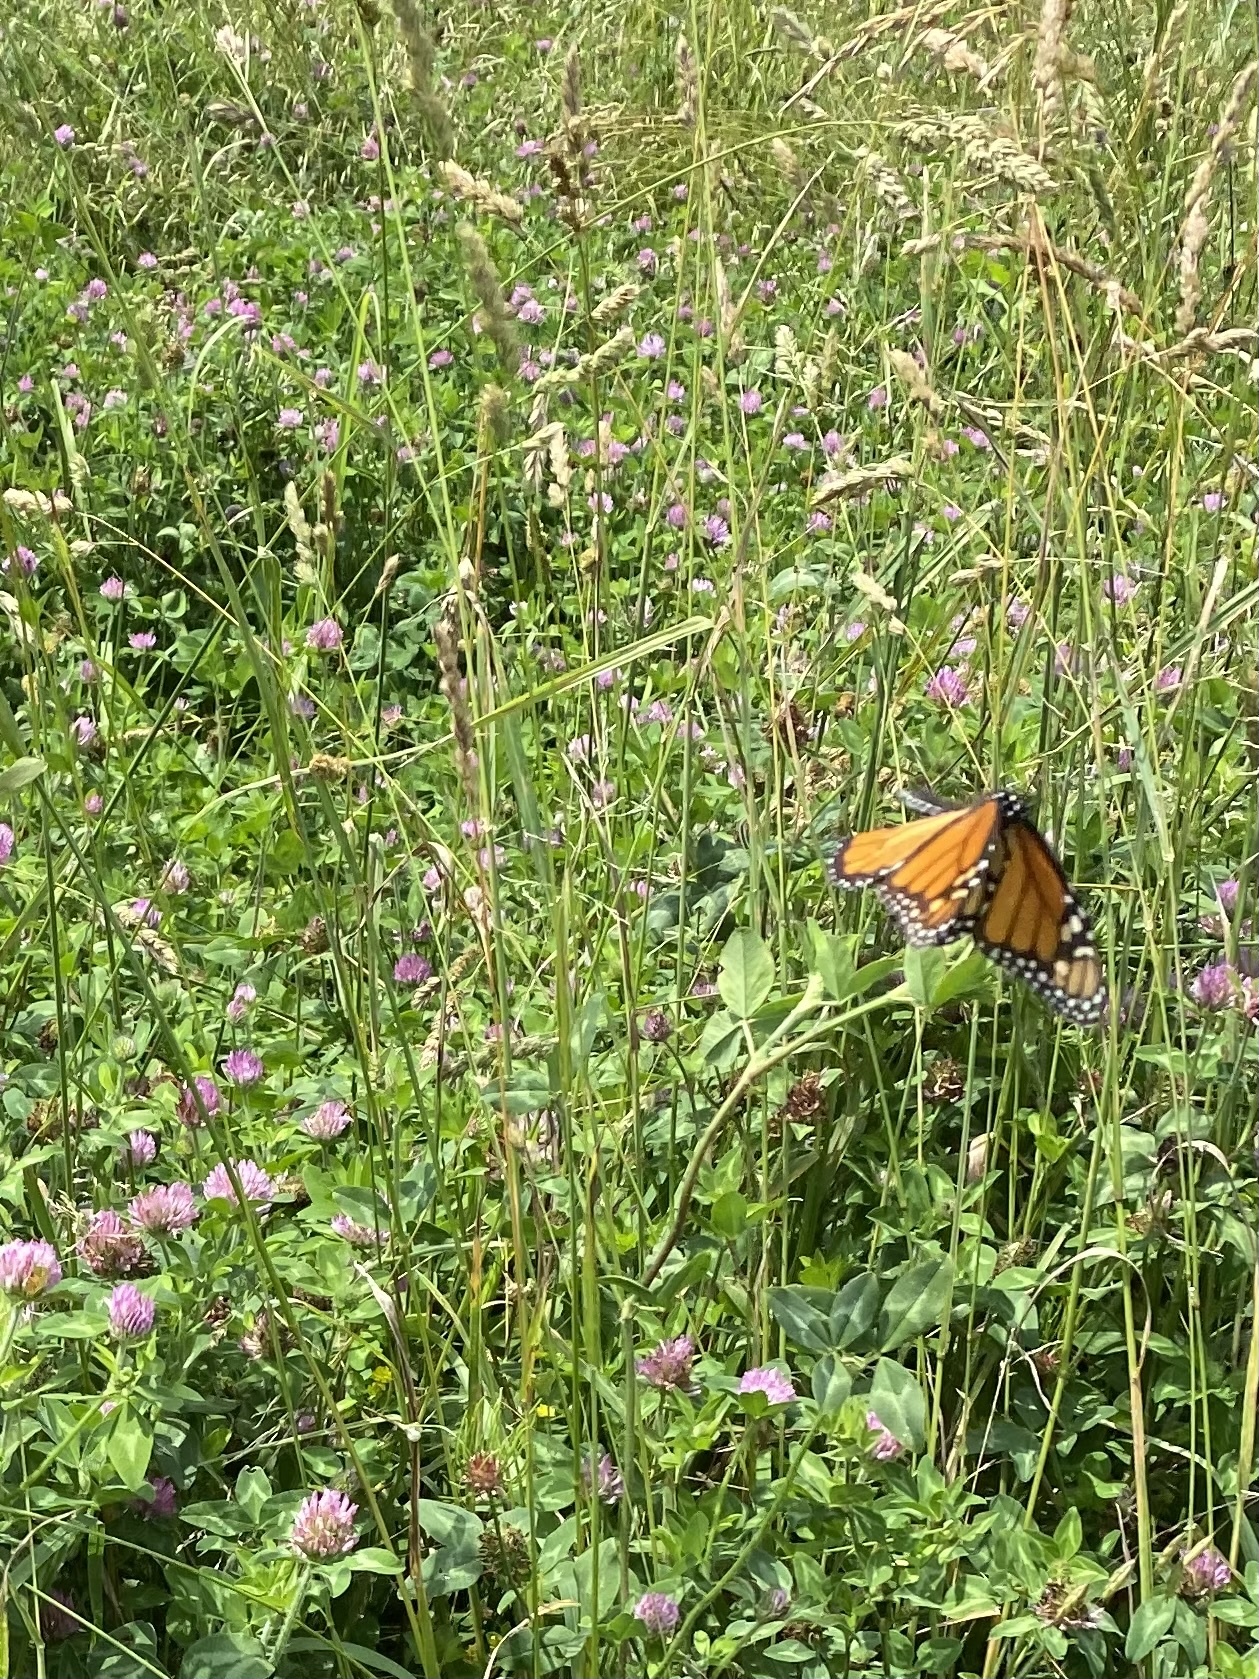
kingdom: Animalia
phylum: Arthropoda
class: Insecta
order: Lepidoptera
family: Nymphalidae
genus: Danaus
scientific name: Danaus plexippus
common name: Monarch
